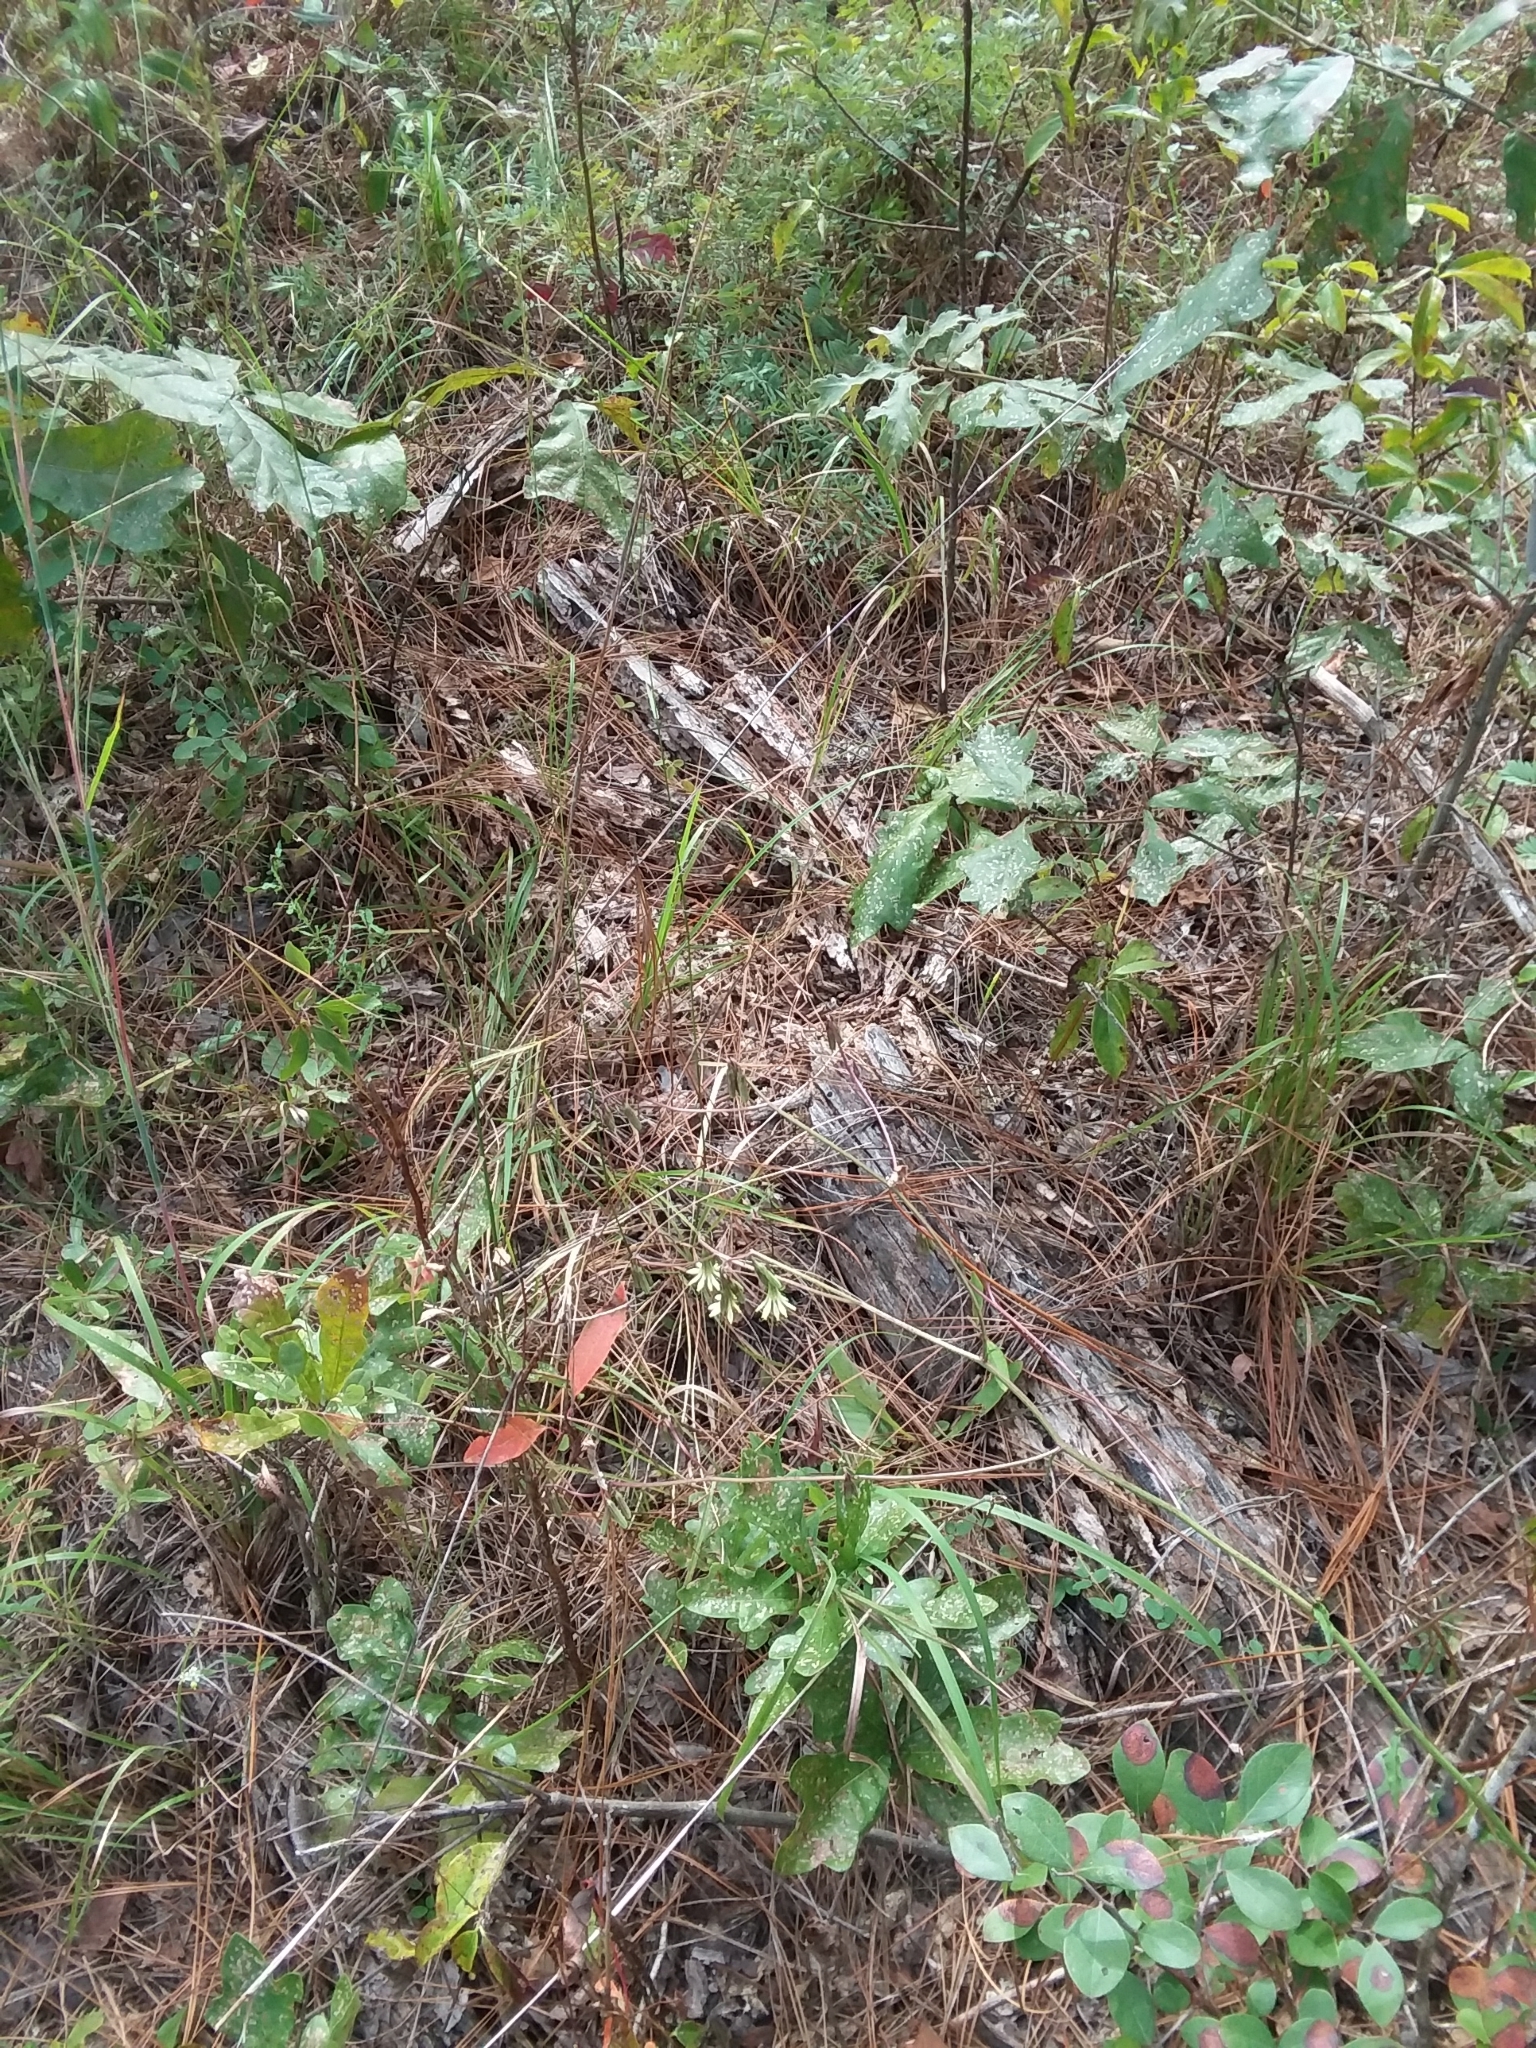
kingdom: Plantae
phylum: Tracheophyta
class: Magnoliopsida
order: Asterales
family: Asteraceae
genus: Nabalus
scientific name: Nabalus serpentarius
